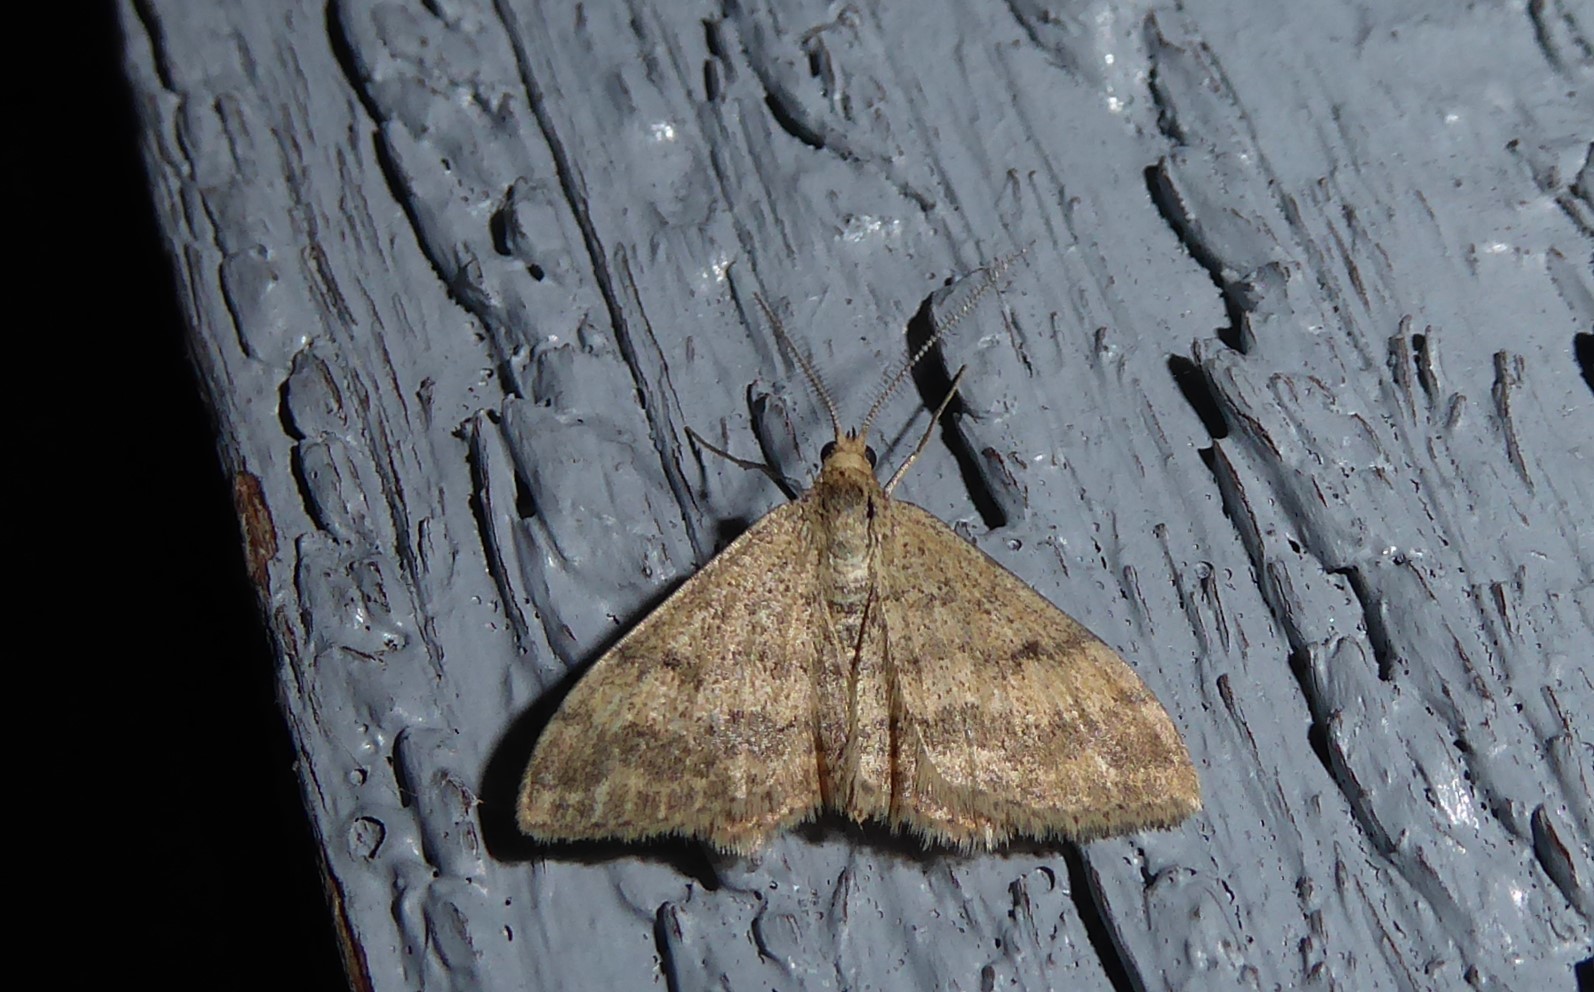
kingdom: Animalia
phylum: Arthropoda
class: Insecta
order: Lepidoptera
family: Geometridae
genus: Scopula
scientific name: Scopula rubraria
